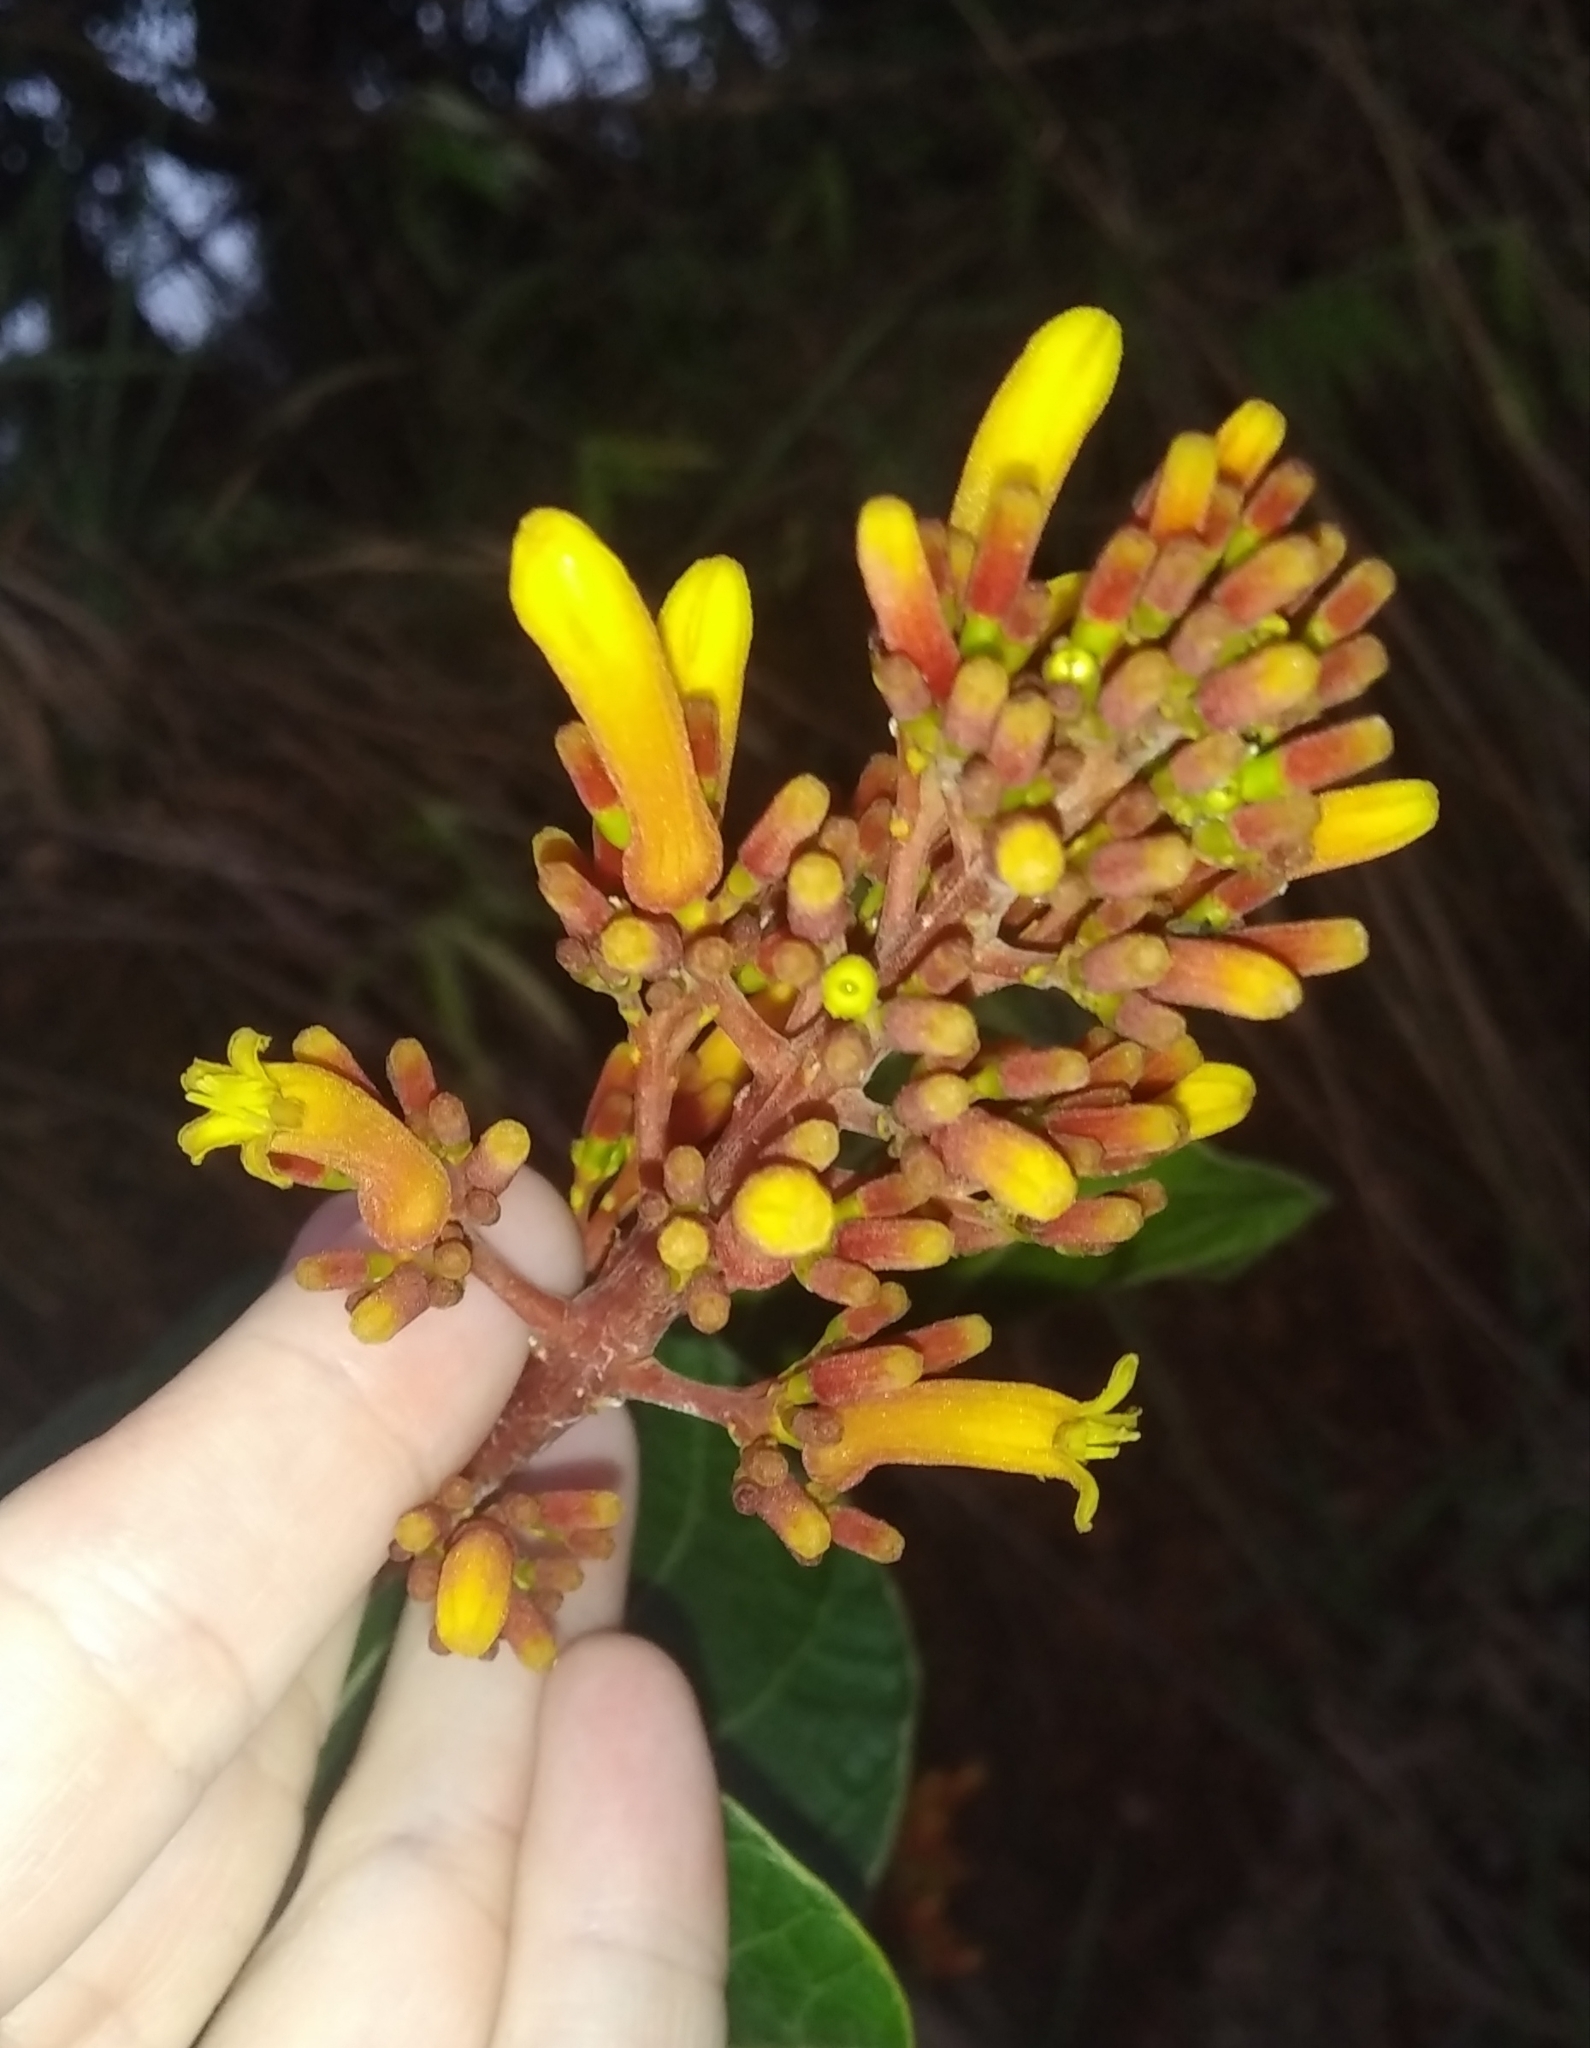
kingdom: Plantae
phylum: Tracheophyta
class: Magnoliopsida
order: Gentianales
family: Rubiaceae
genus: Palicourea
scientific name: Palicourea rigida
